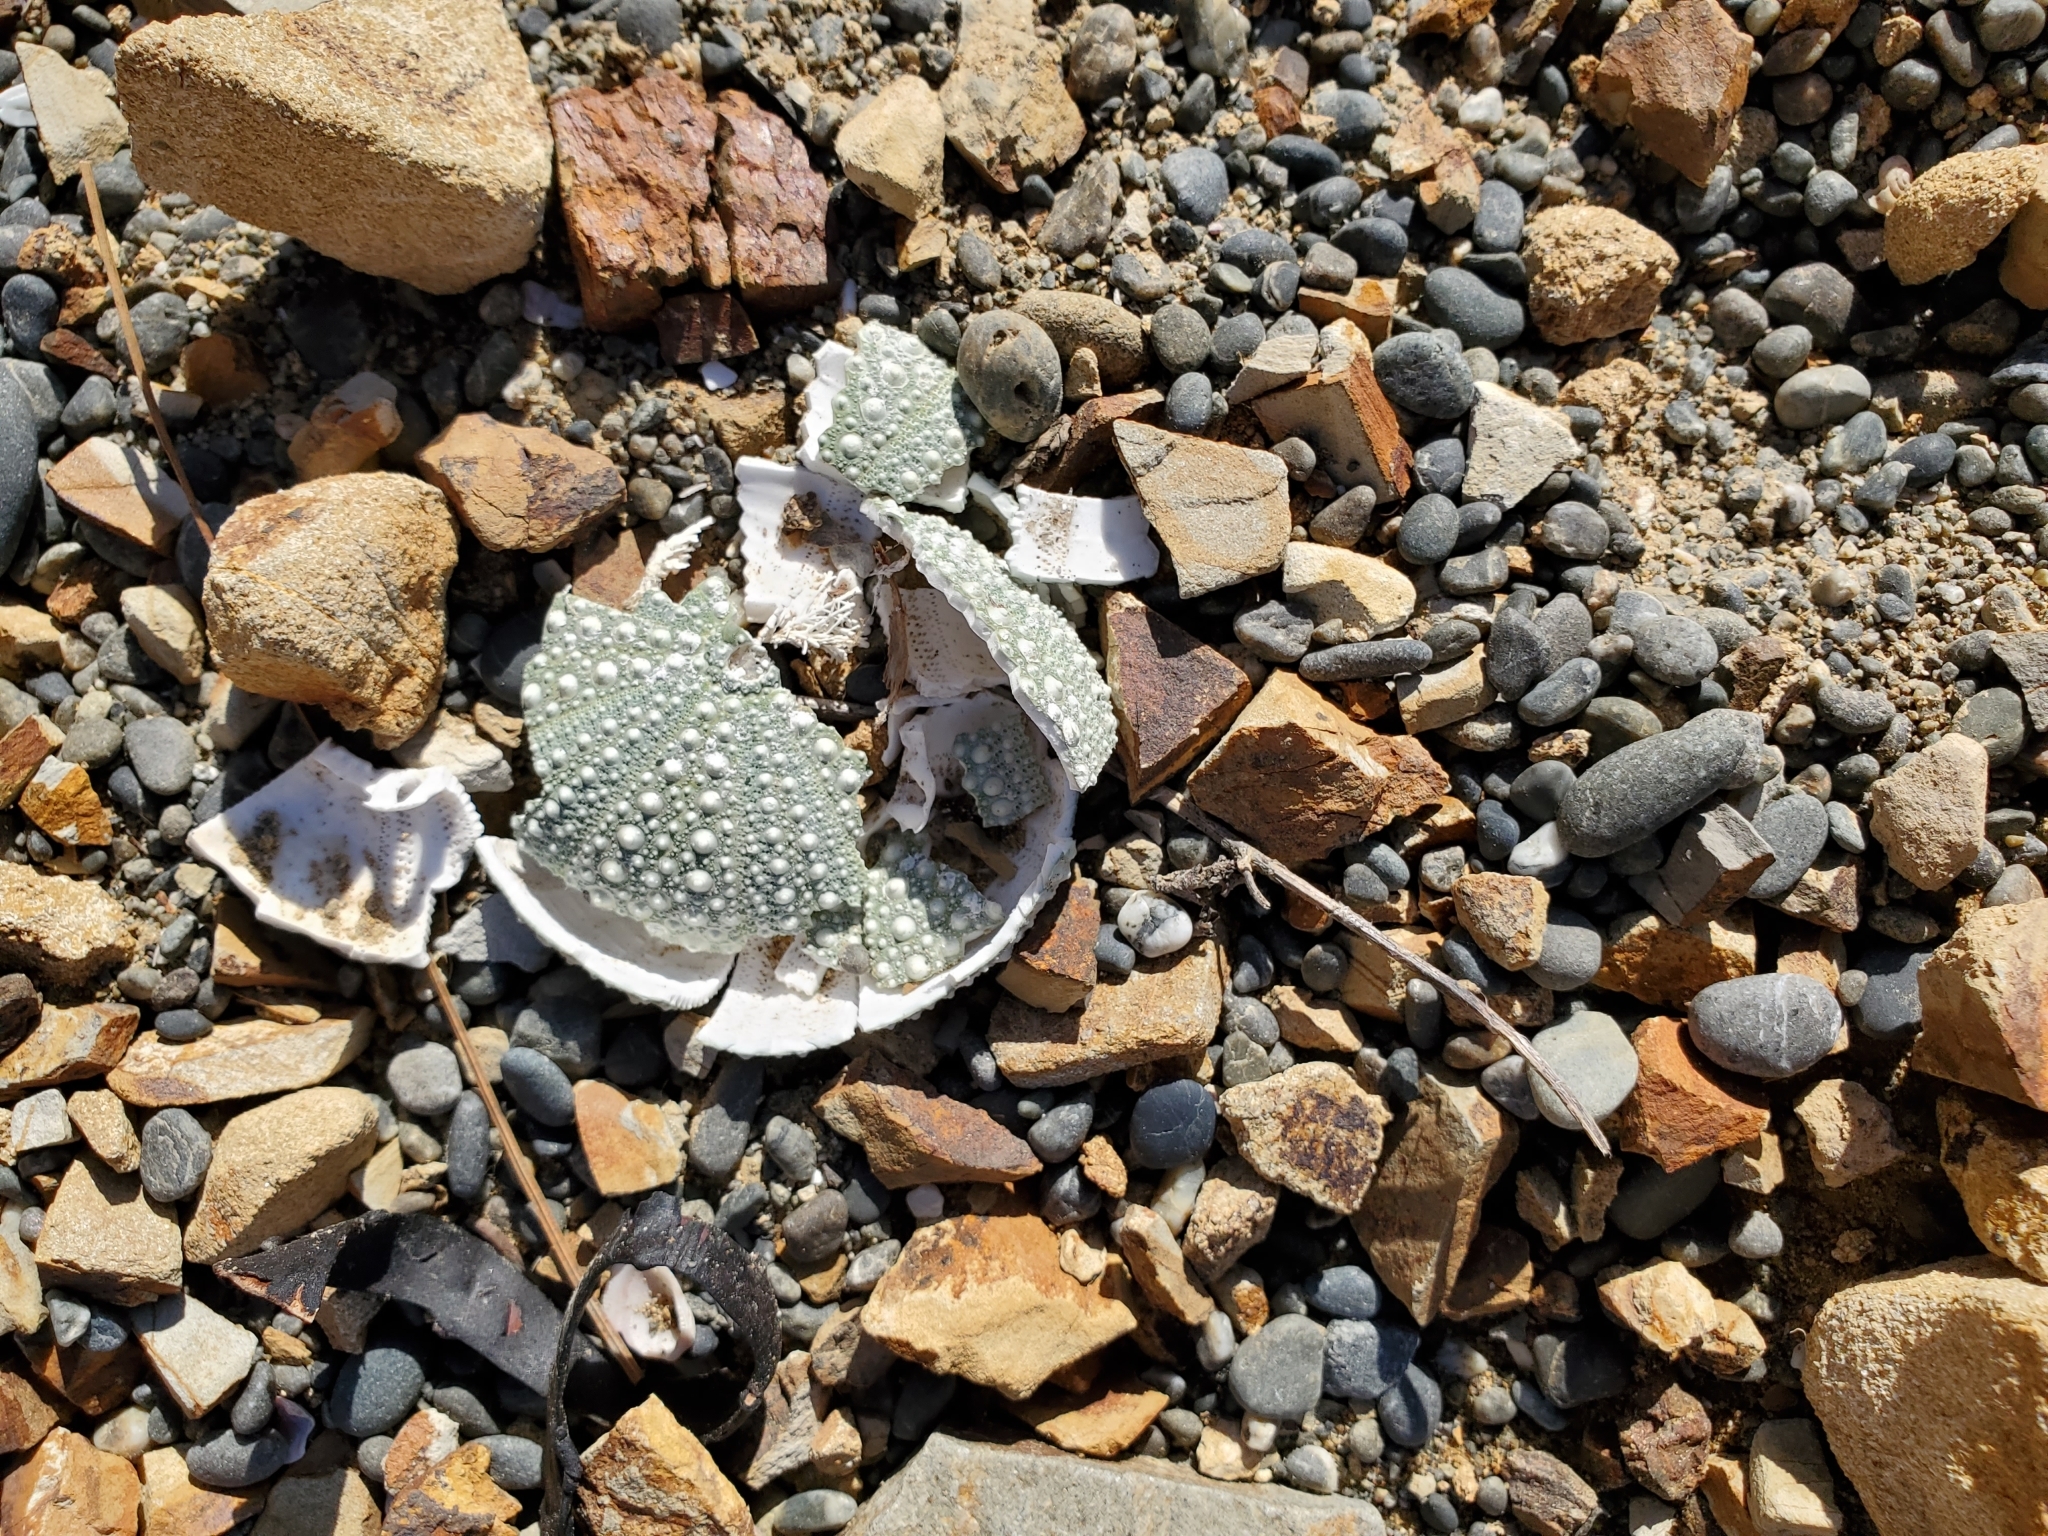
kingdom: Animalia
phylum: Echinodermata
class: Echinoidea
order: Camarodonta
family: Echinometridae
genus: Evechinus
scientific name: Evechinus chloroticus
